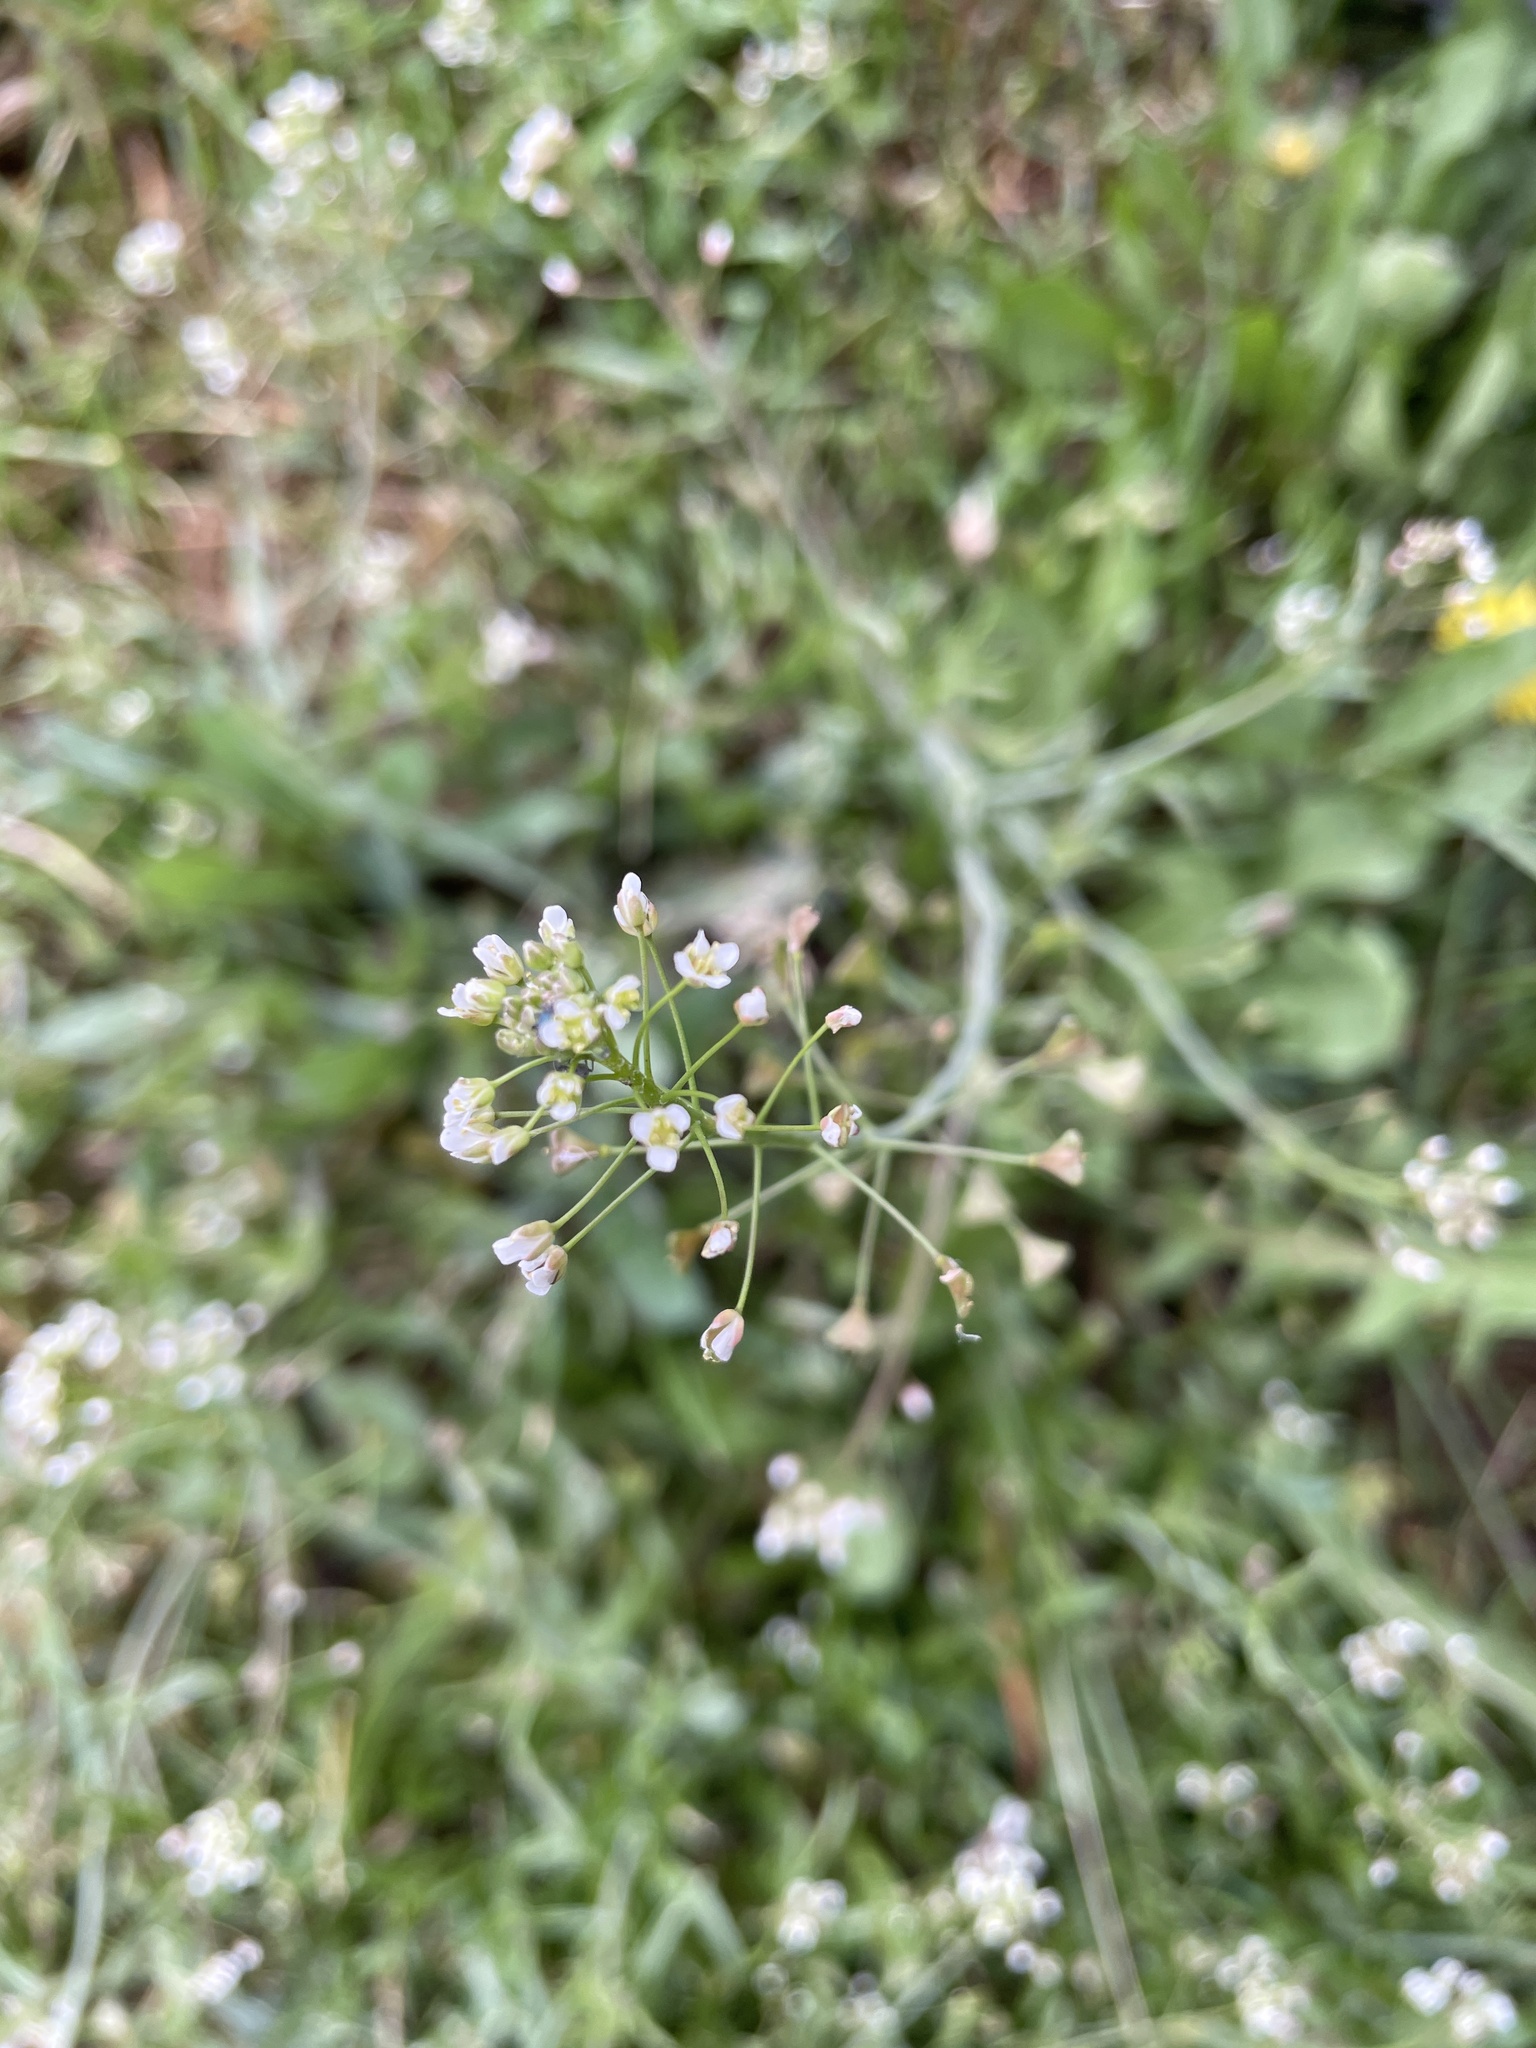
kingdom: Plantae
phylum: Tracheophyta
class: Magnoliopsida
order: Brassicales
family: Brassicaceae
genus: Capsella
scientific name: Capsella bursa-pastoris
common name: Shepherd's purse
